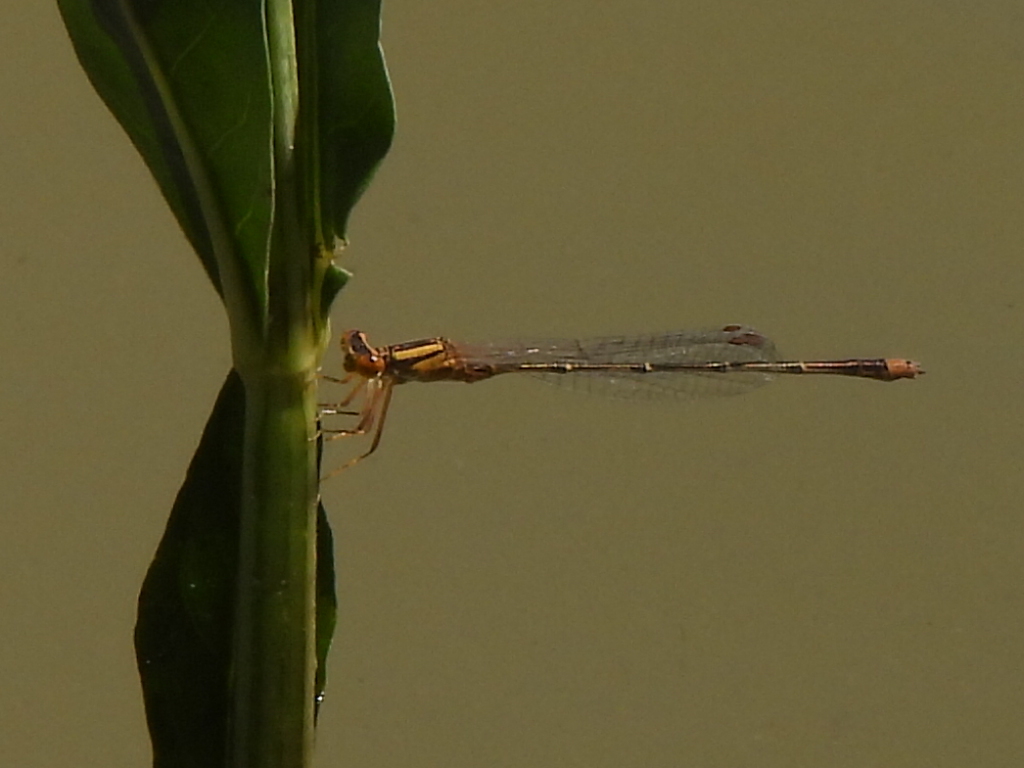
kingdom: Animalia
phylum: Arthropoda
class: Insecta
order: Odonata
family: Coenagrionidae
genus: Enallagma
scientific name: Enallagma signatum
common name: Orange bluet
